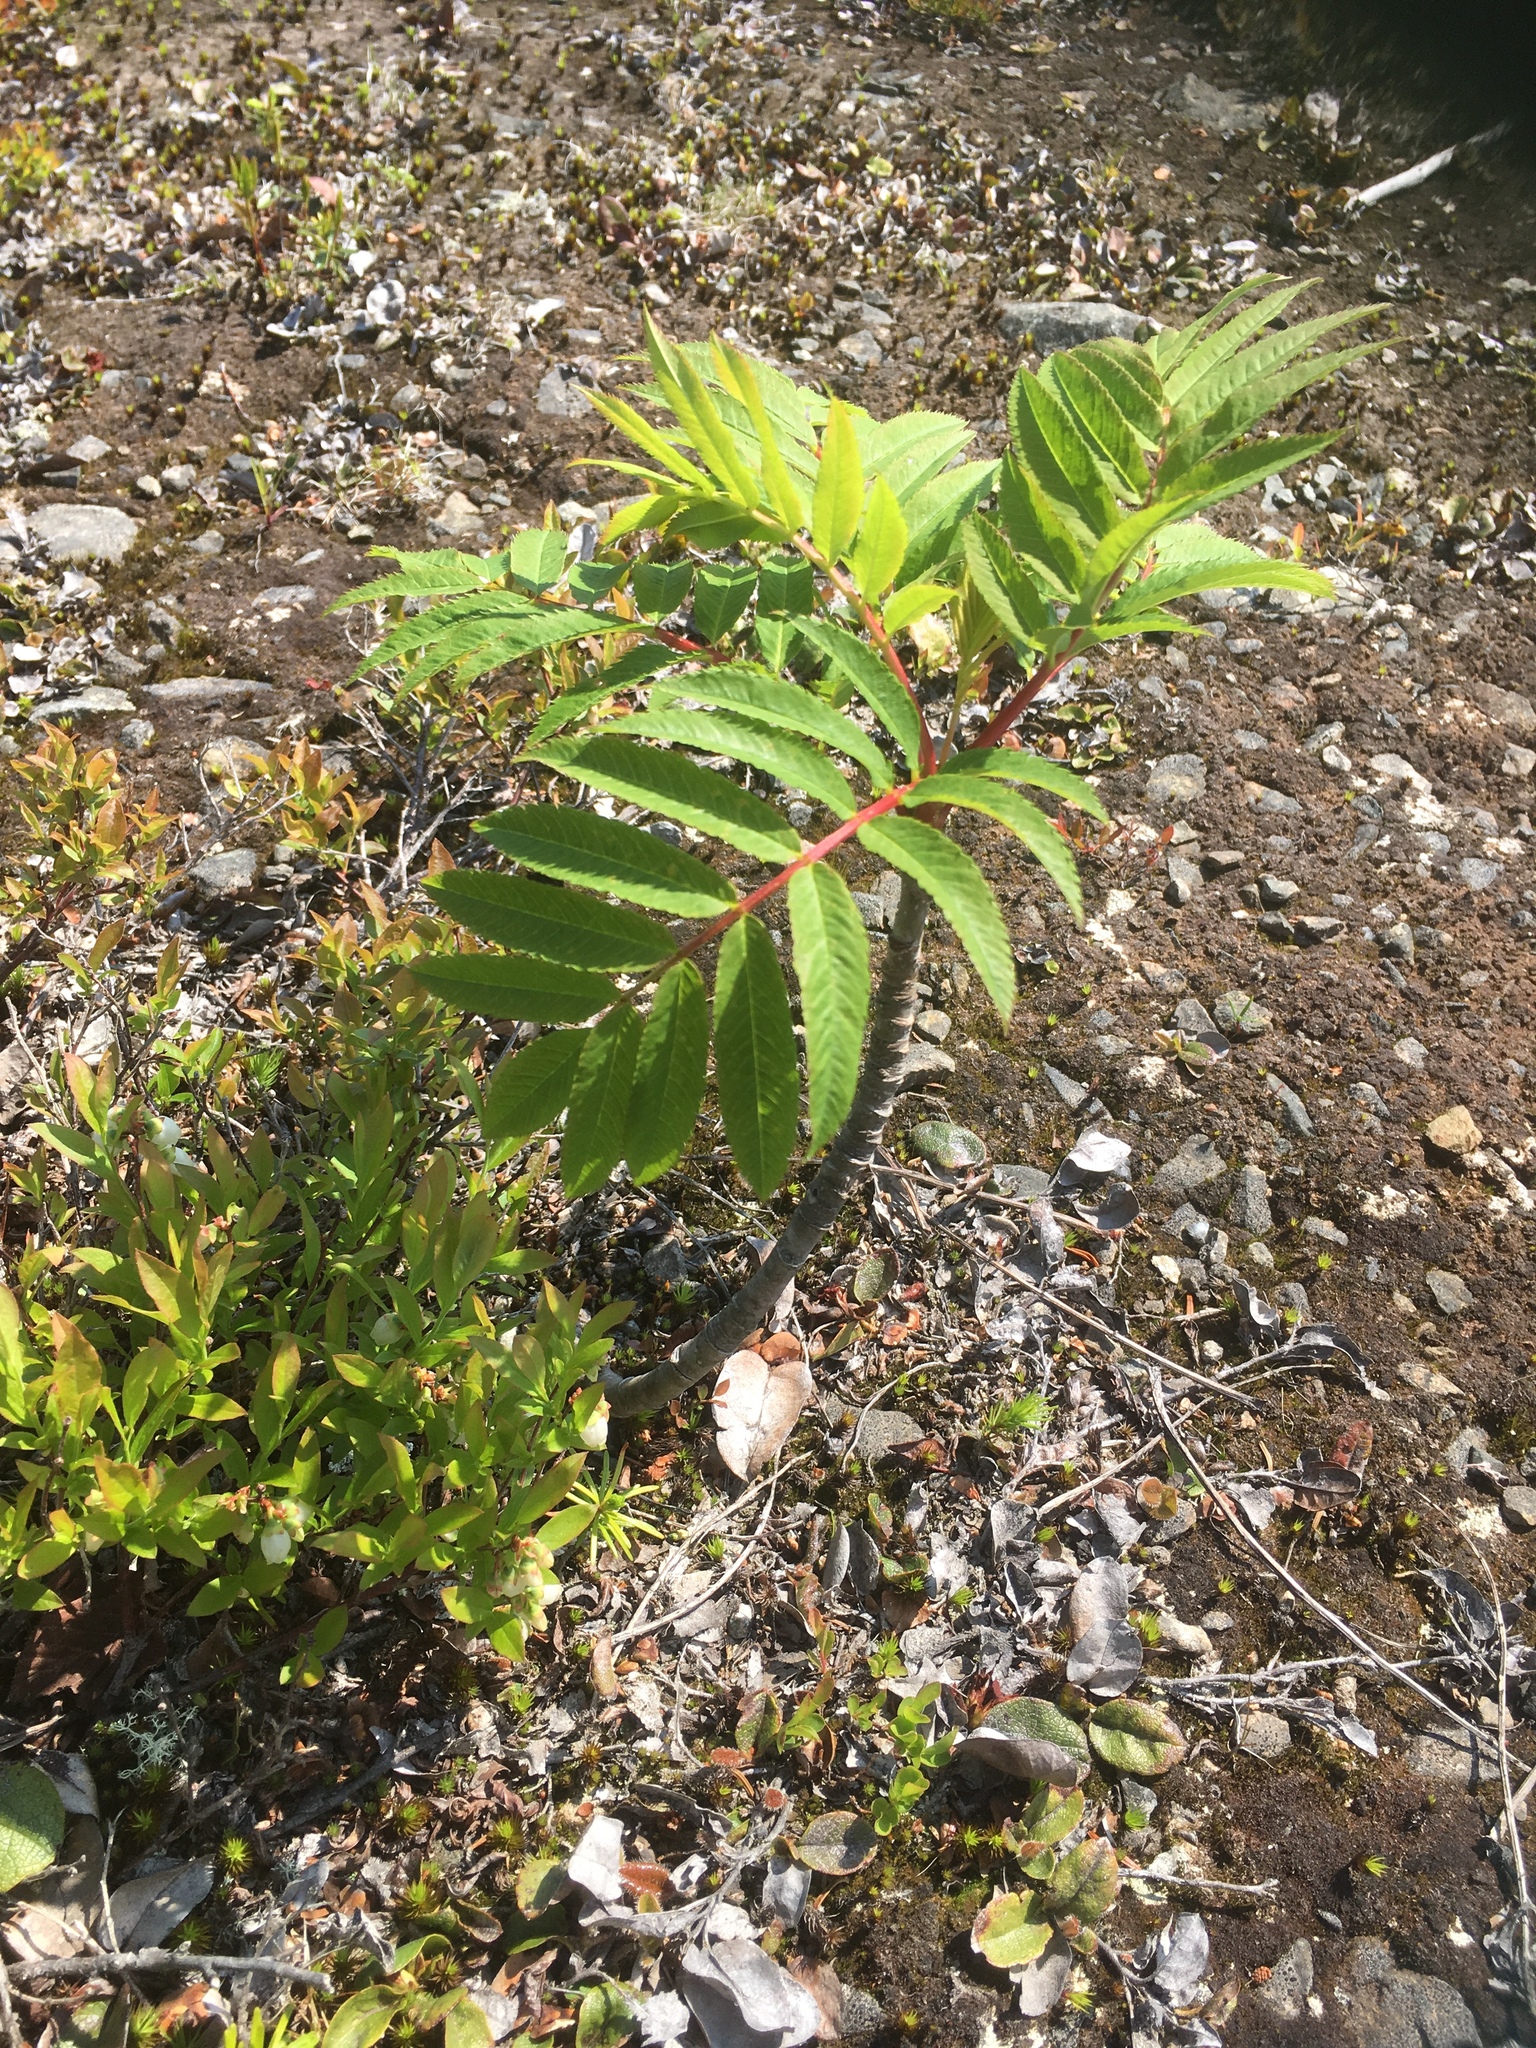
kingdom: Plantae
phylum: Tracheophyta
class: Magnoliopsida
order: Rosales
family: Rosaceae
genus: Sorbus
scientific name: Sorbus americana
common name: American mountain-ash
